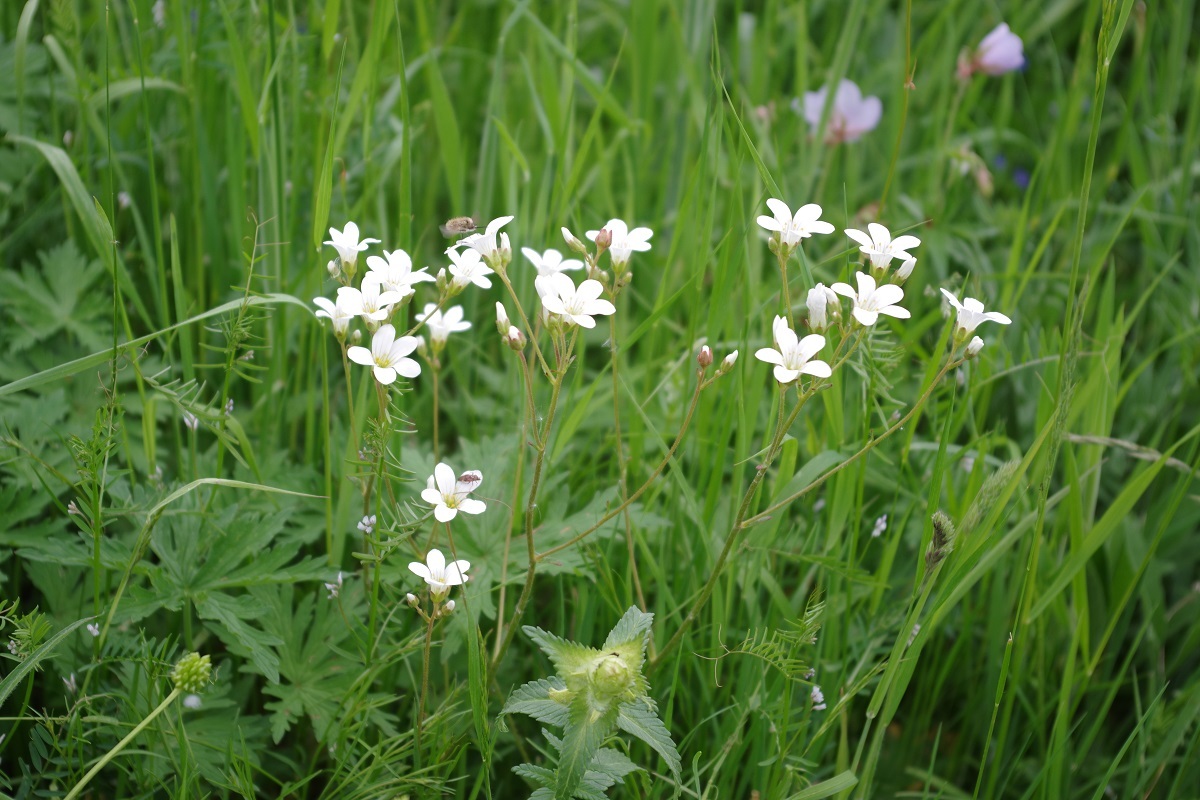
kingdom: Plantae
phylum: Tracheophyta
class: Magnoliopsida
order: Saxifragales
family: Saxifragaceae
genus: Saxifraga
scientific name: Saxifraga granulata
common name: Meadow saxifrage
